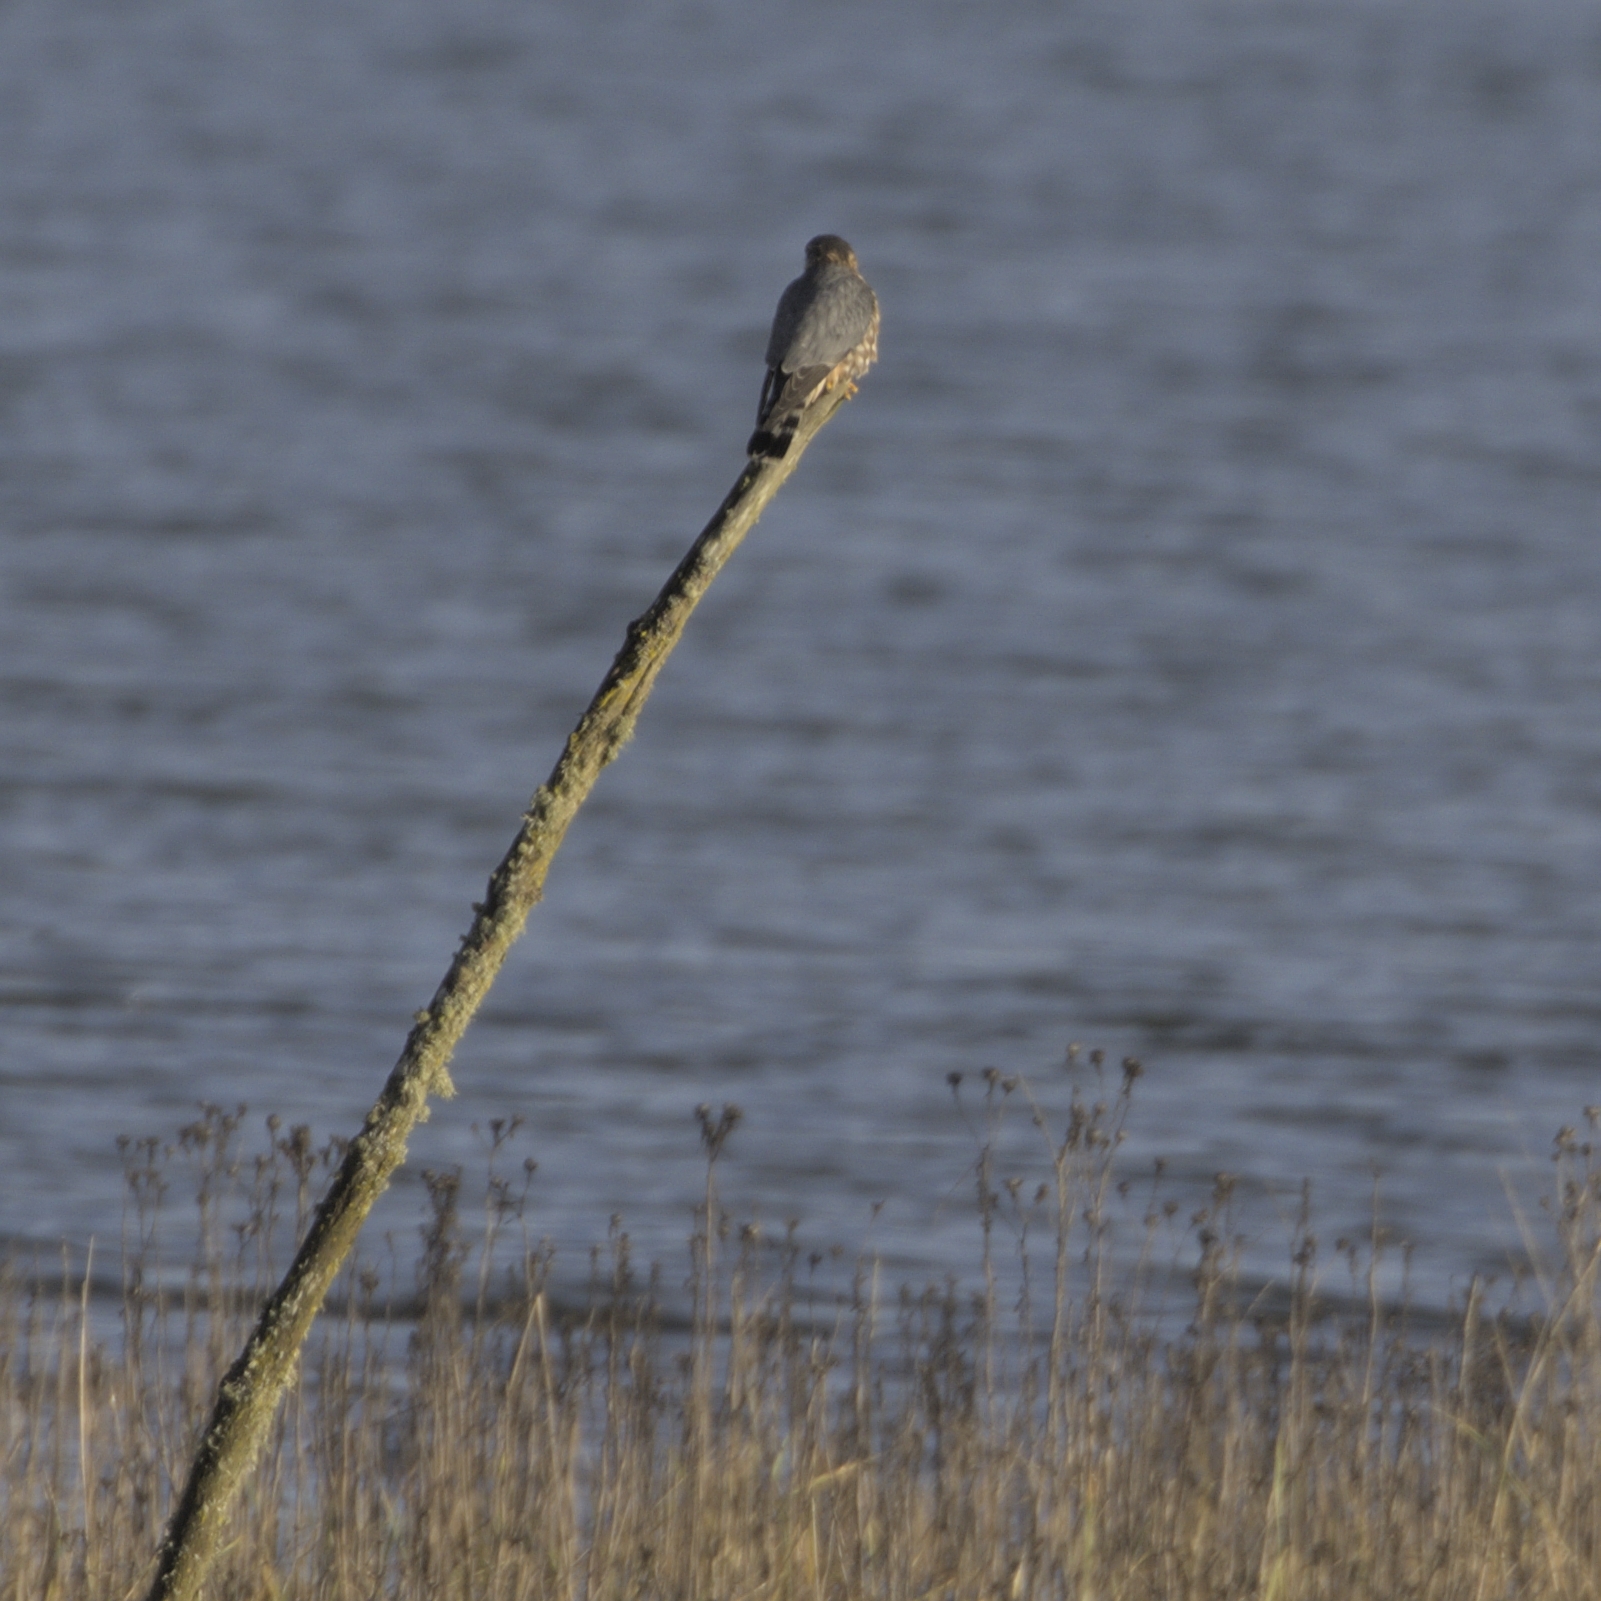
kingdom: Animalia
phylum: Chordata
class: Aves
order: Falconiformes
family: Falconidae
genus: Falco
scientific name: Falco columbarius
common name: Merlin
